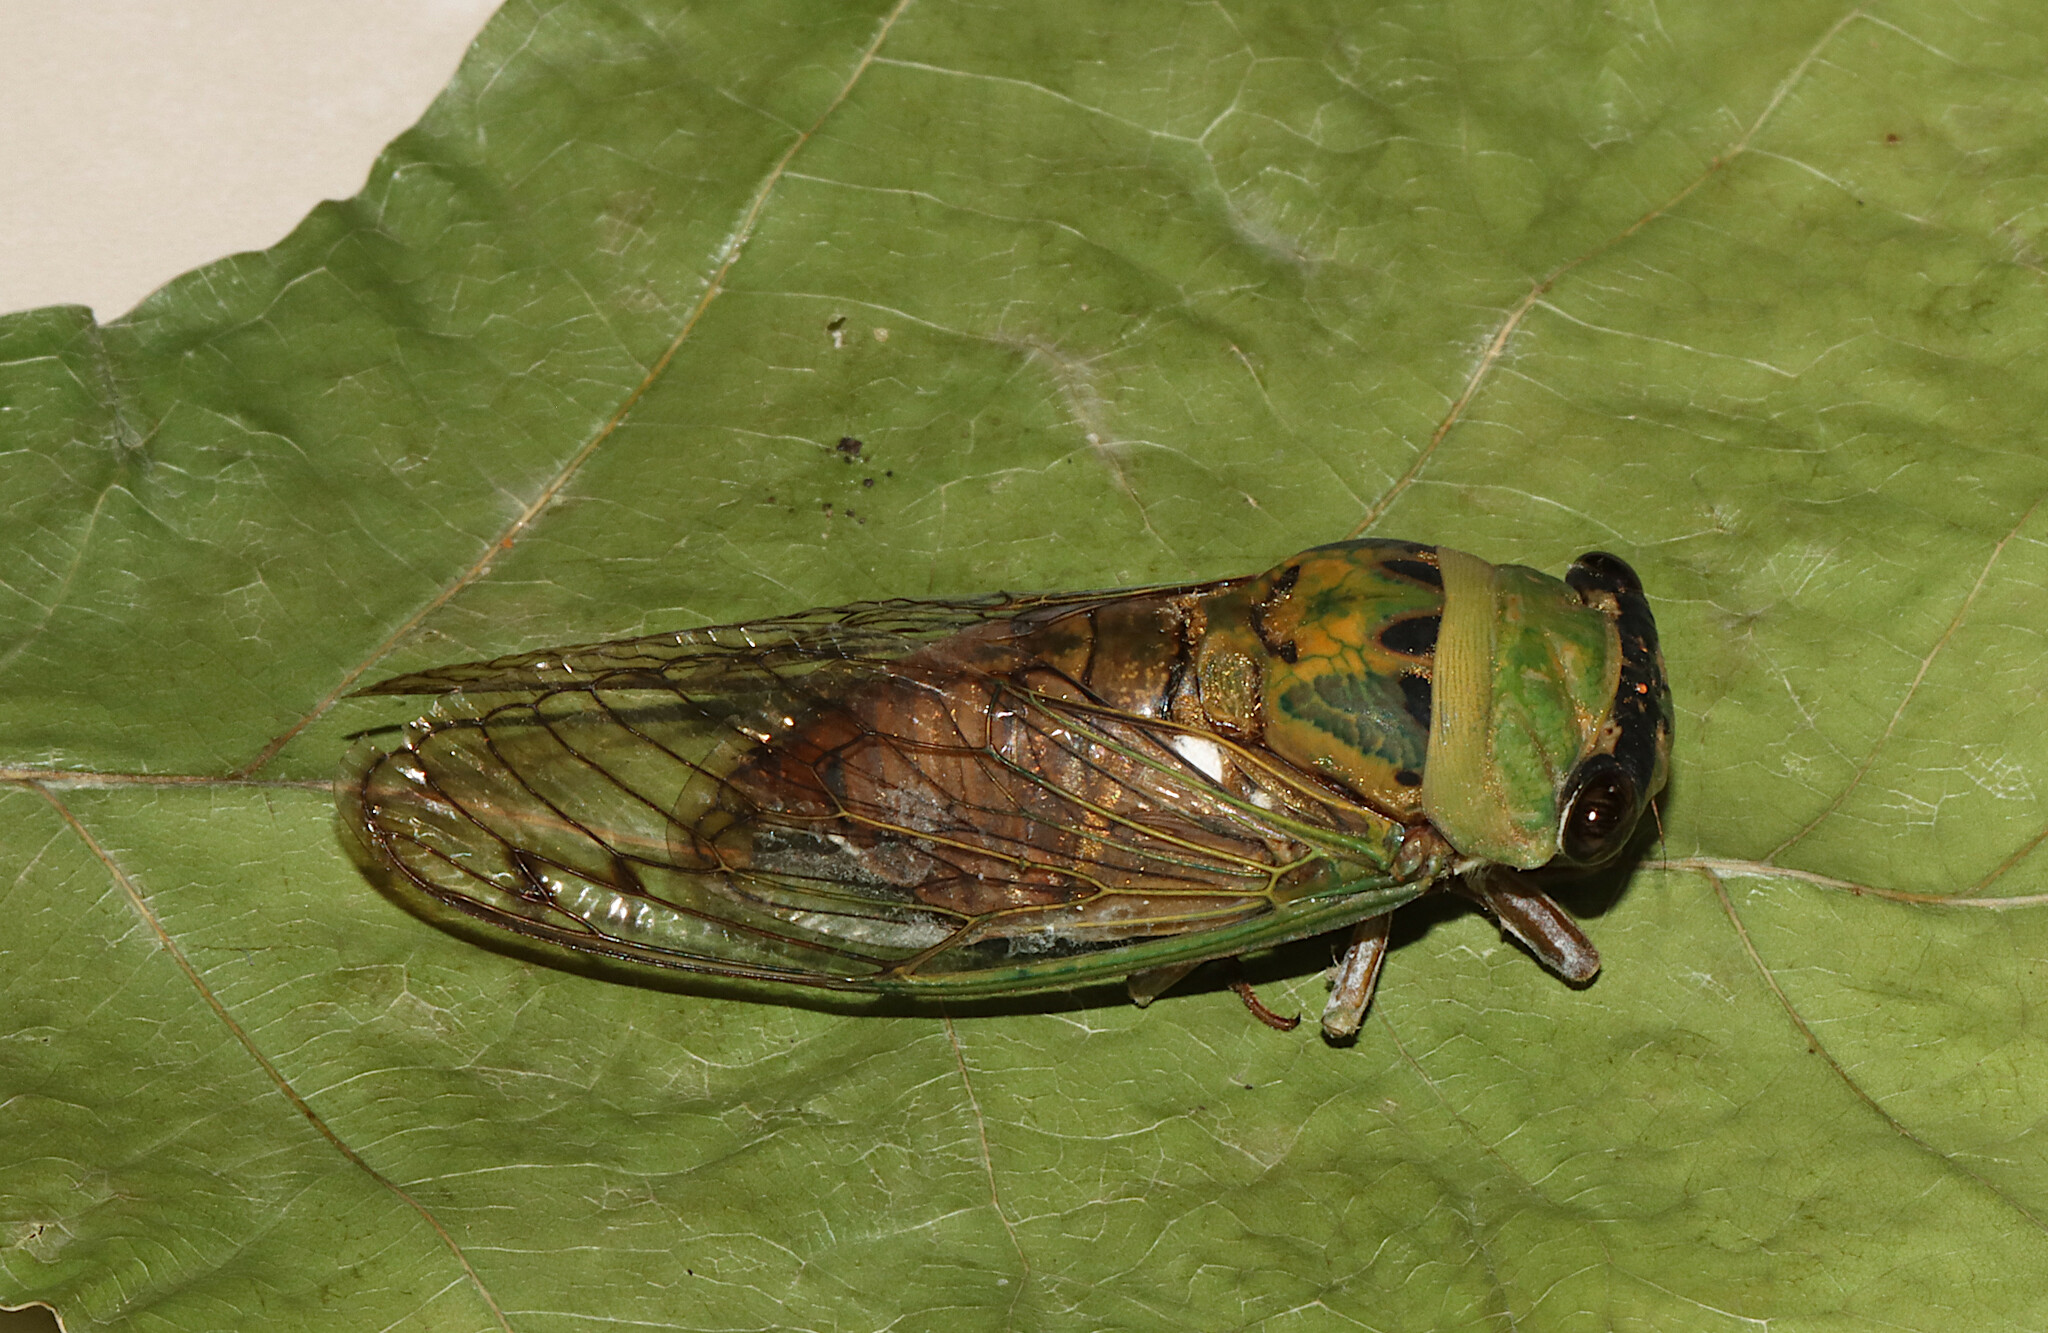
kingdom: Animalia
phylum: Arthropoda
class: Insecta
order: Hemiptera
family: Cicadidae
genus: Neotibicen
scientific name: Neotibicen superbus
